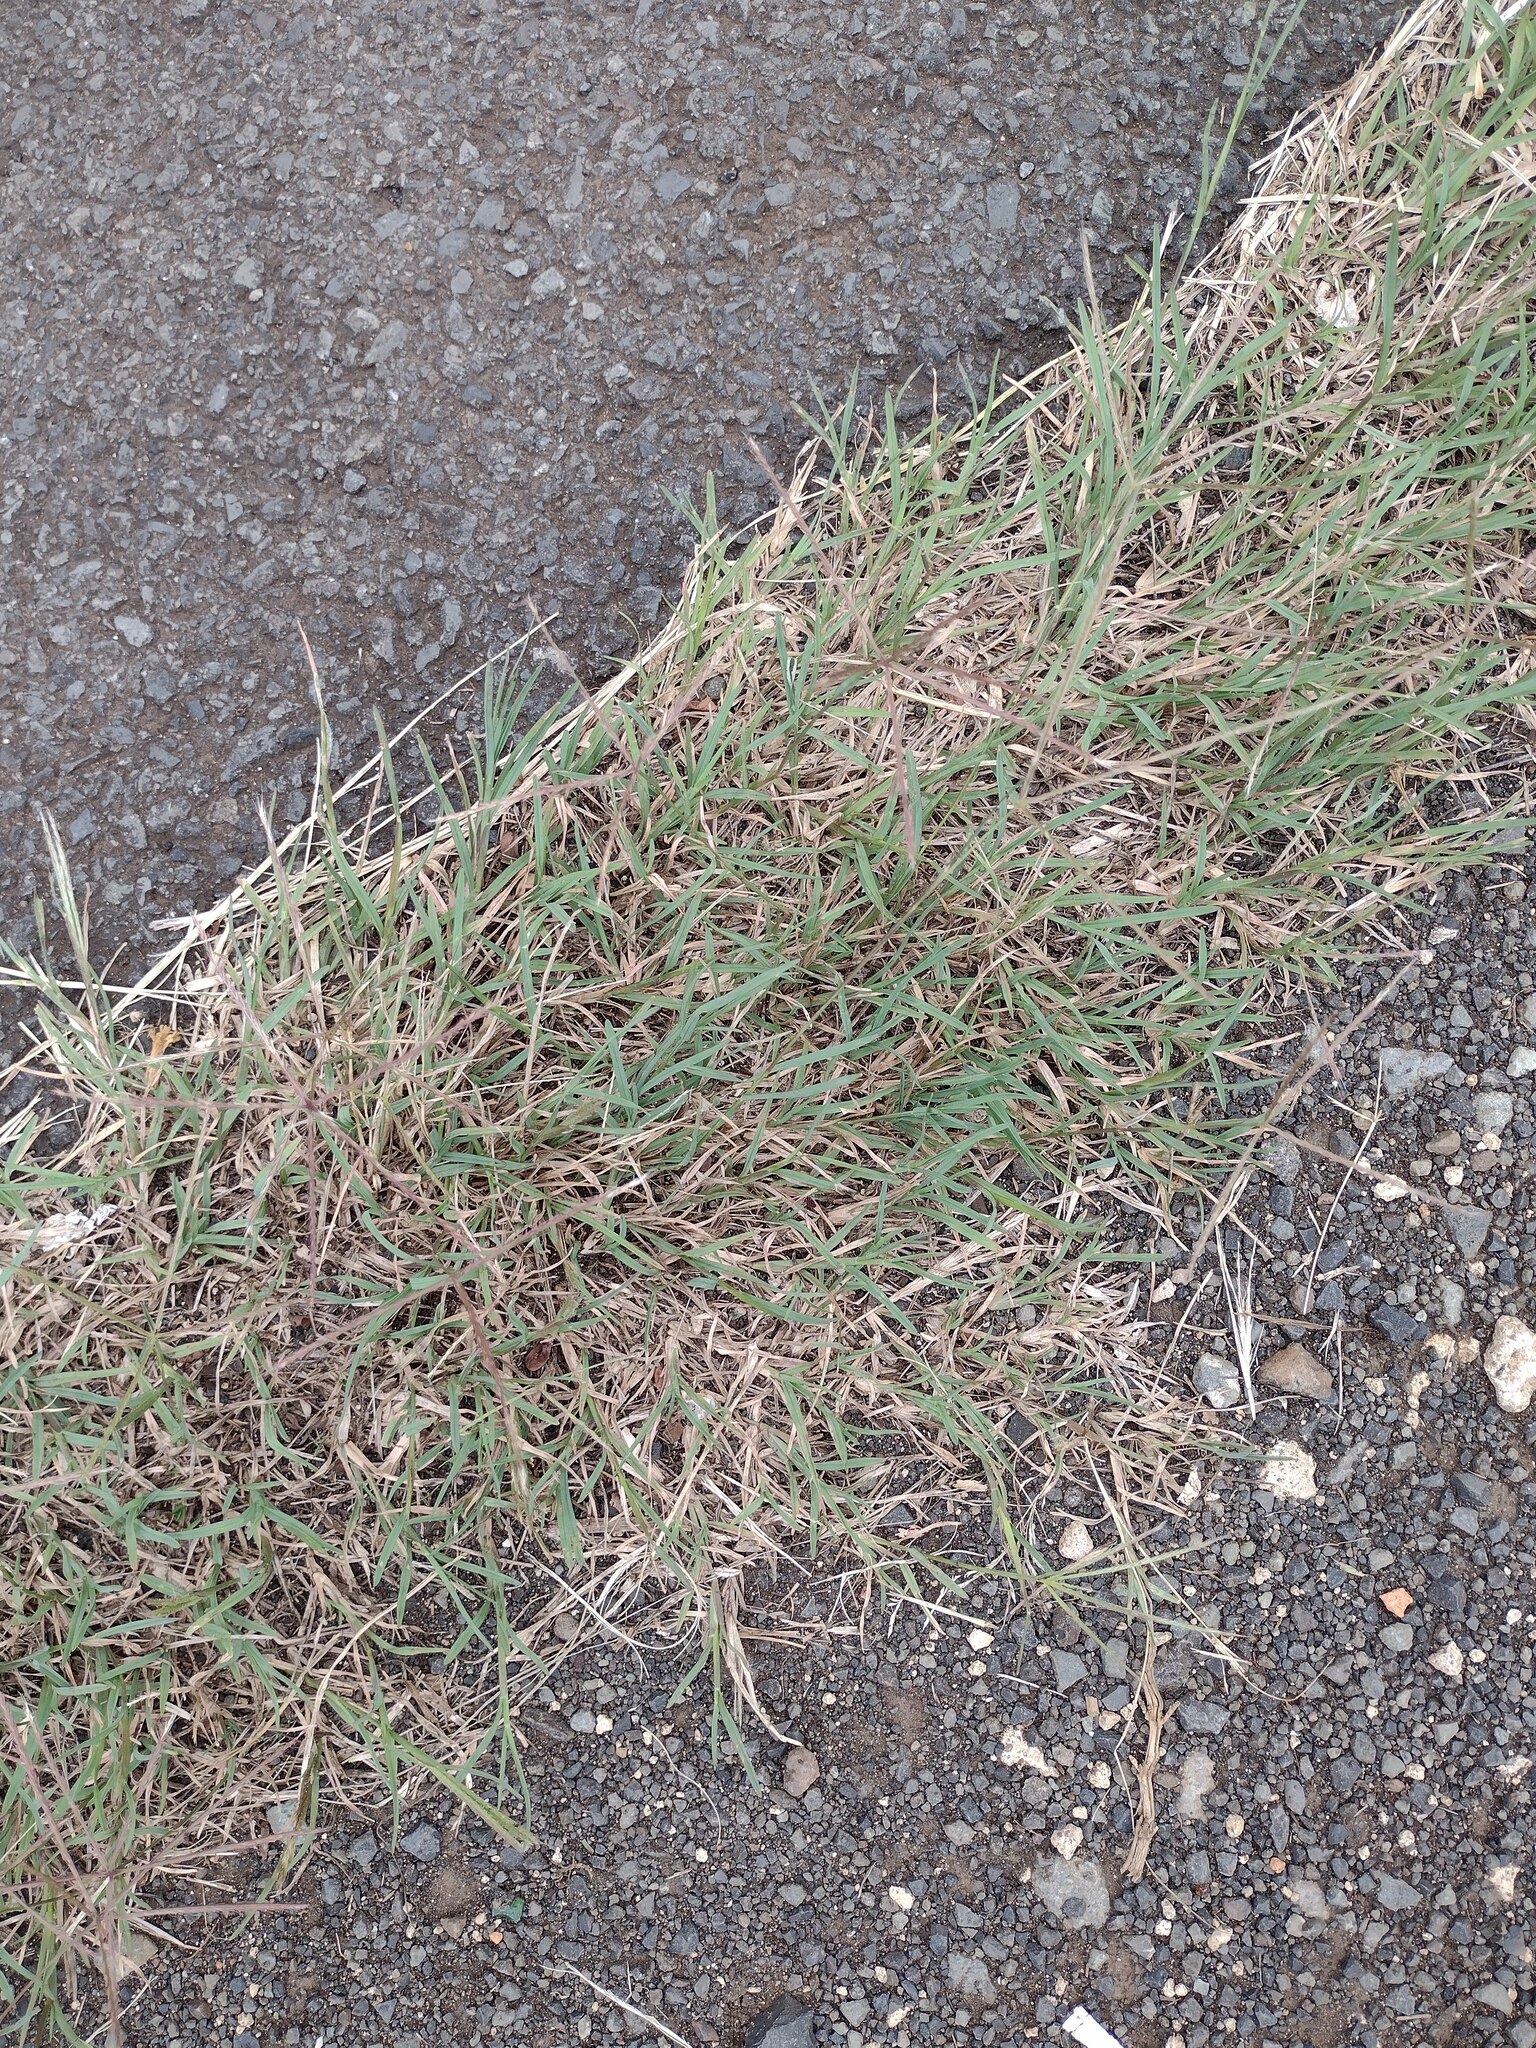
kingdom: Plantae
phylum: Tracheophyta
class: Liliopsida
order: Poales
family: Poaceae
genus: Cynodon
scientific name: Cynodon dactylon
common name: Bermuda grass
